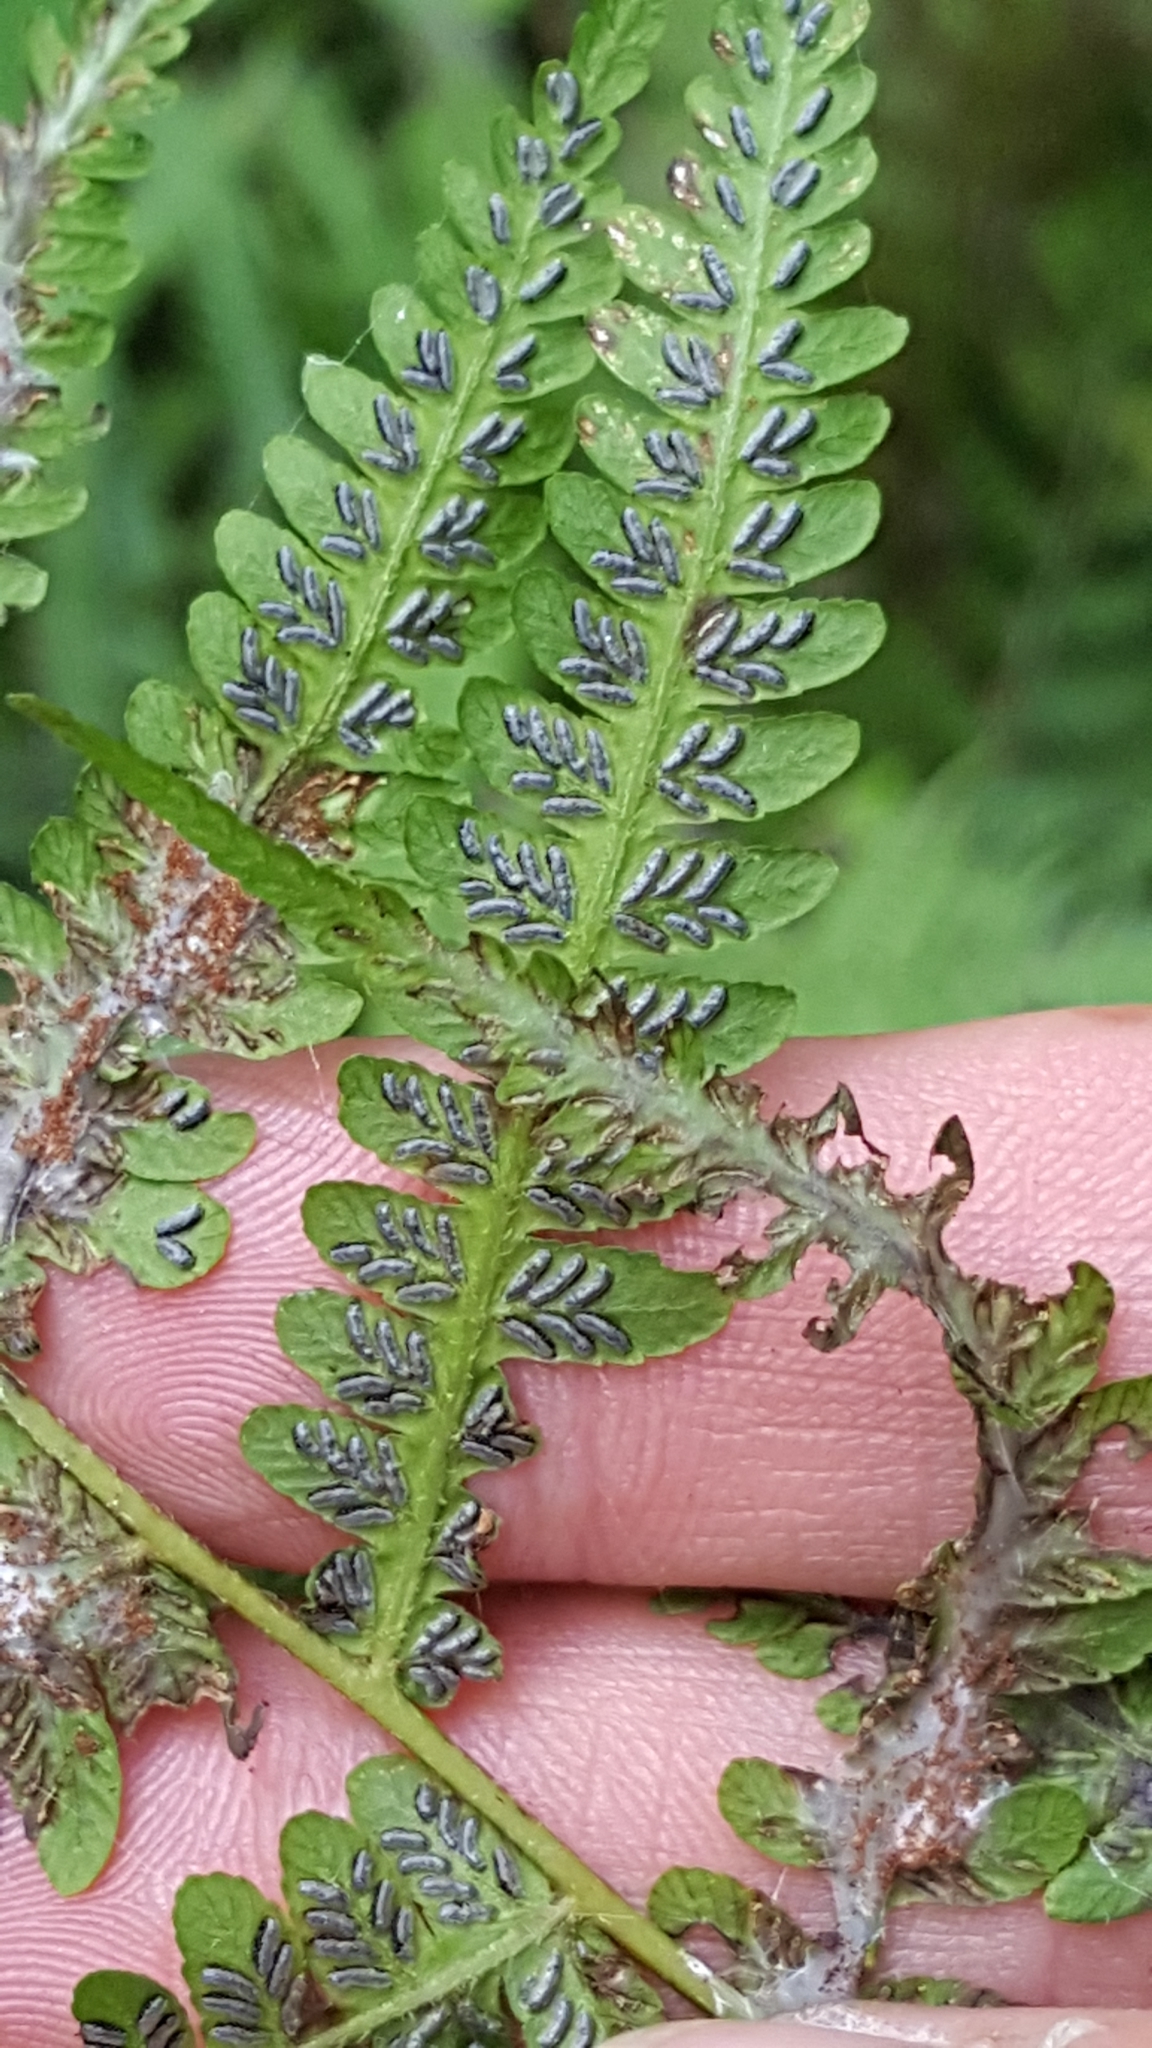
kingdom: Plantae
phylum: Tracheophyta
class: Polypodiopsida
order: Polypodiales
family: Athyriaceae
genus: Deparia
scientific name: Deparia acrostichoides
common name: Silver false spleenwort
